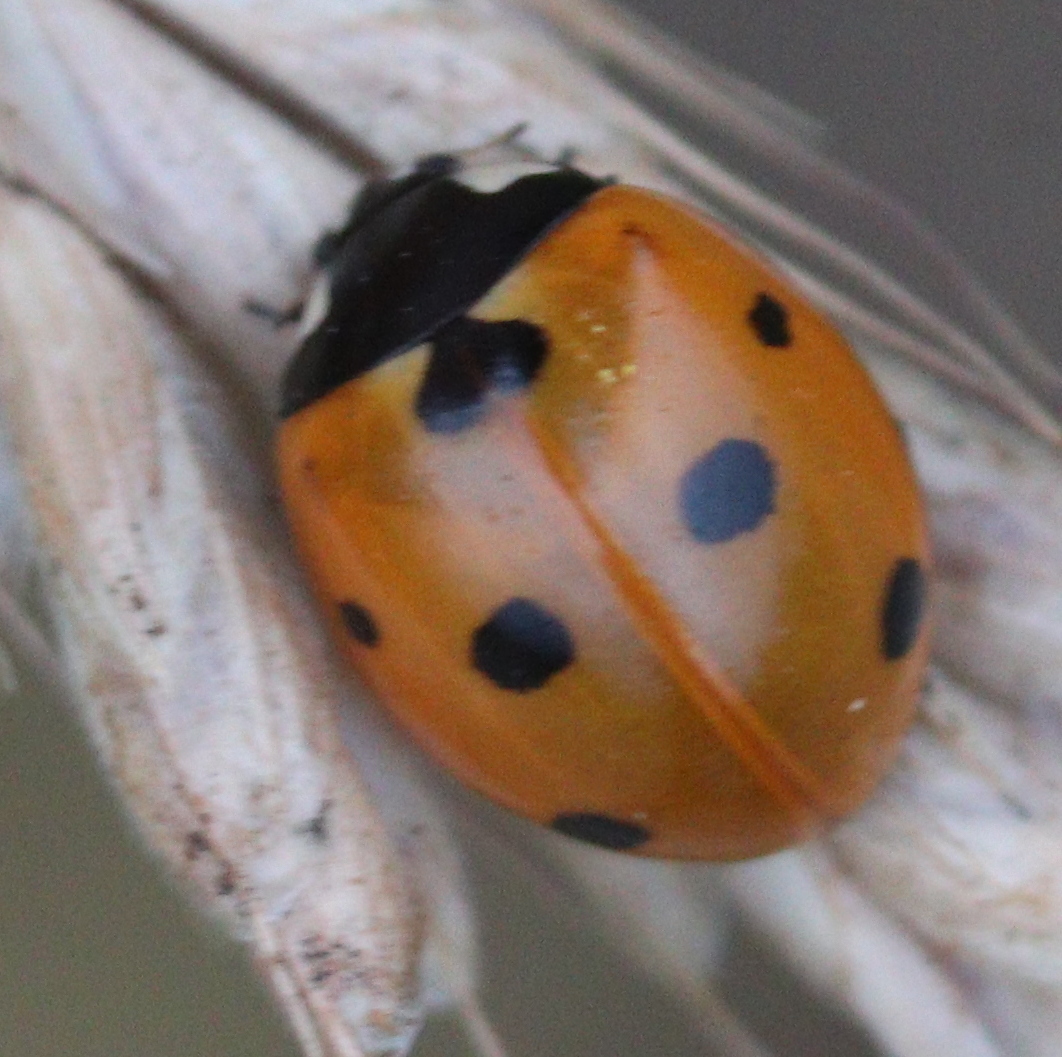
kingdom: Animalia
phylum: Arthropoda
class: Insecta
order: Coleoptera
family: Coccinellidae
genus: Coccinella
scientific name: Coccinella septempunctata
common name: Sevenspotted lady beetle
